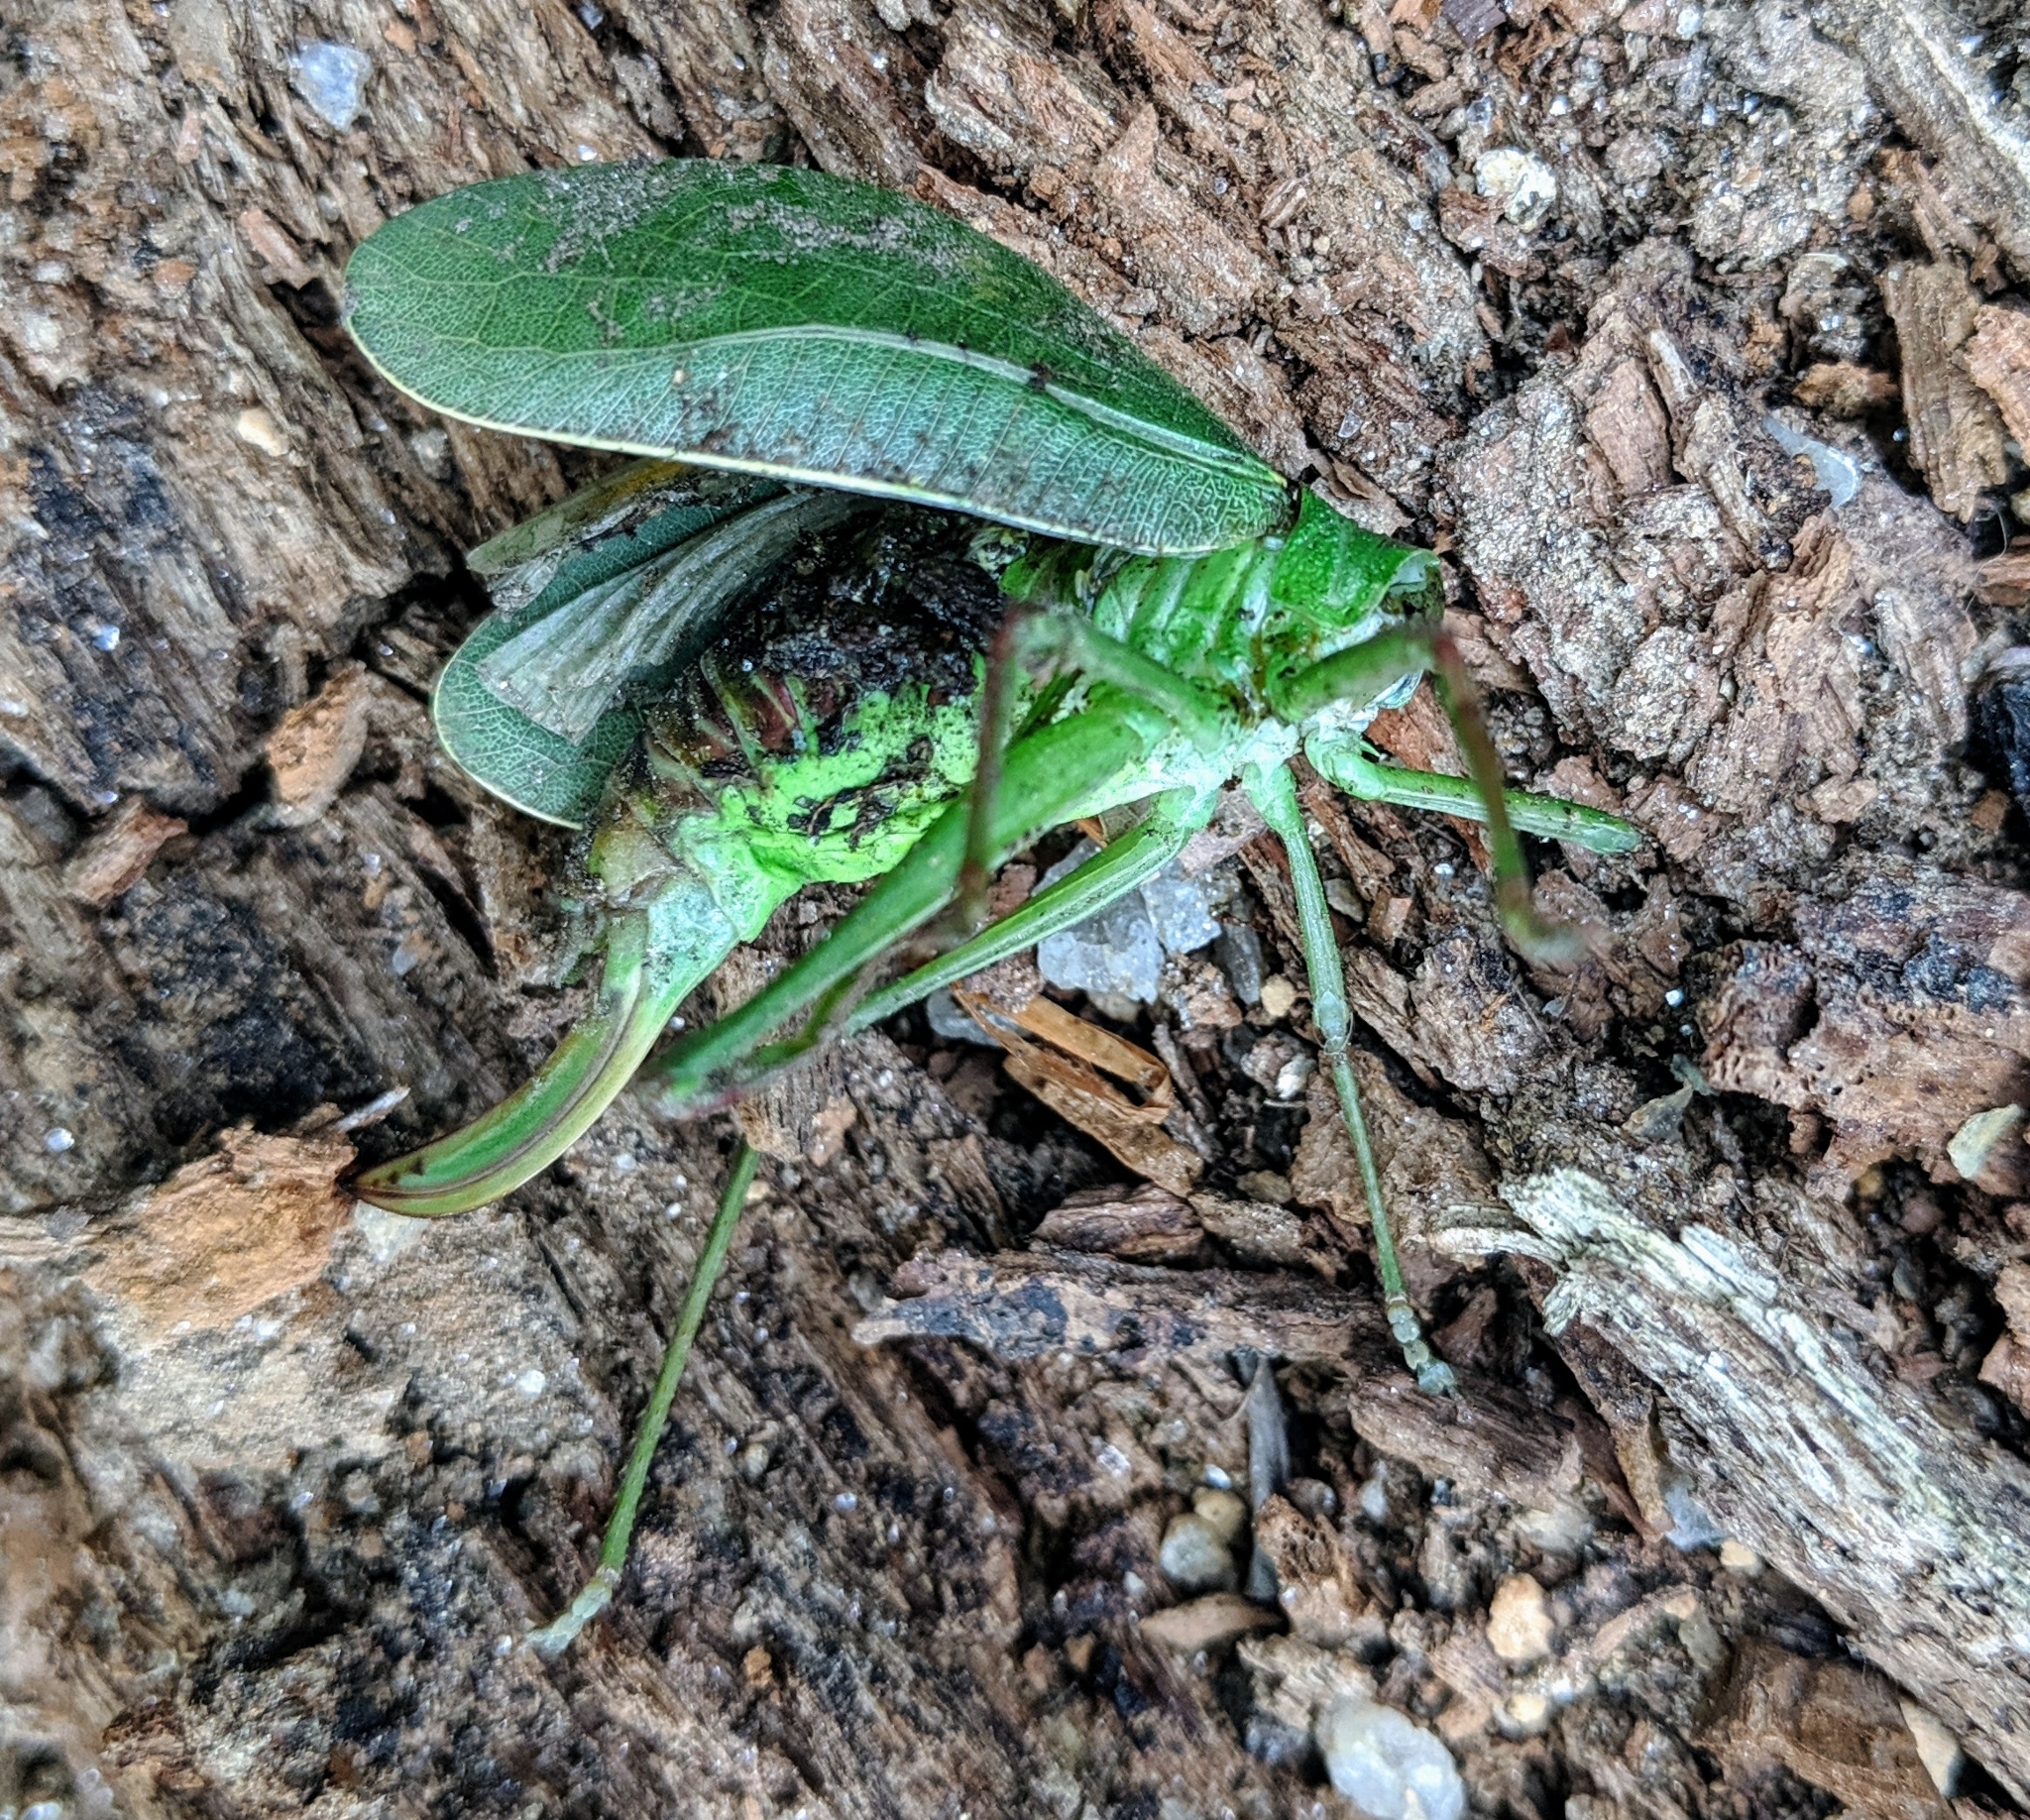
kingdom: Animalia
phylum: Arthropoda
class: Insecta
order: Orthoptera
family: Tettigoniidae
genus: Pterophylla
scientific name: Pterophylla camellifolia
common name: Common true katydid
